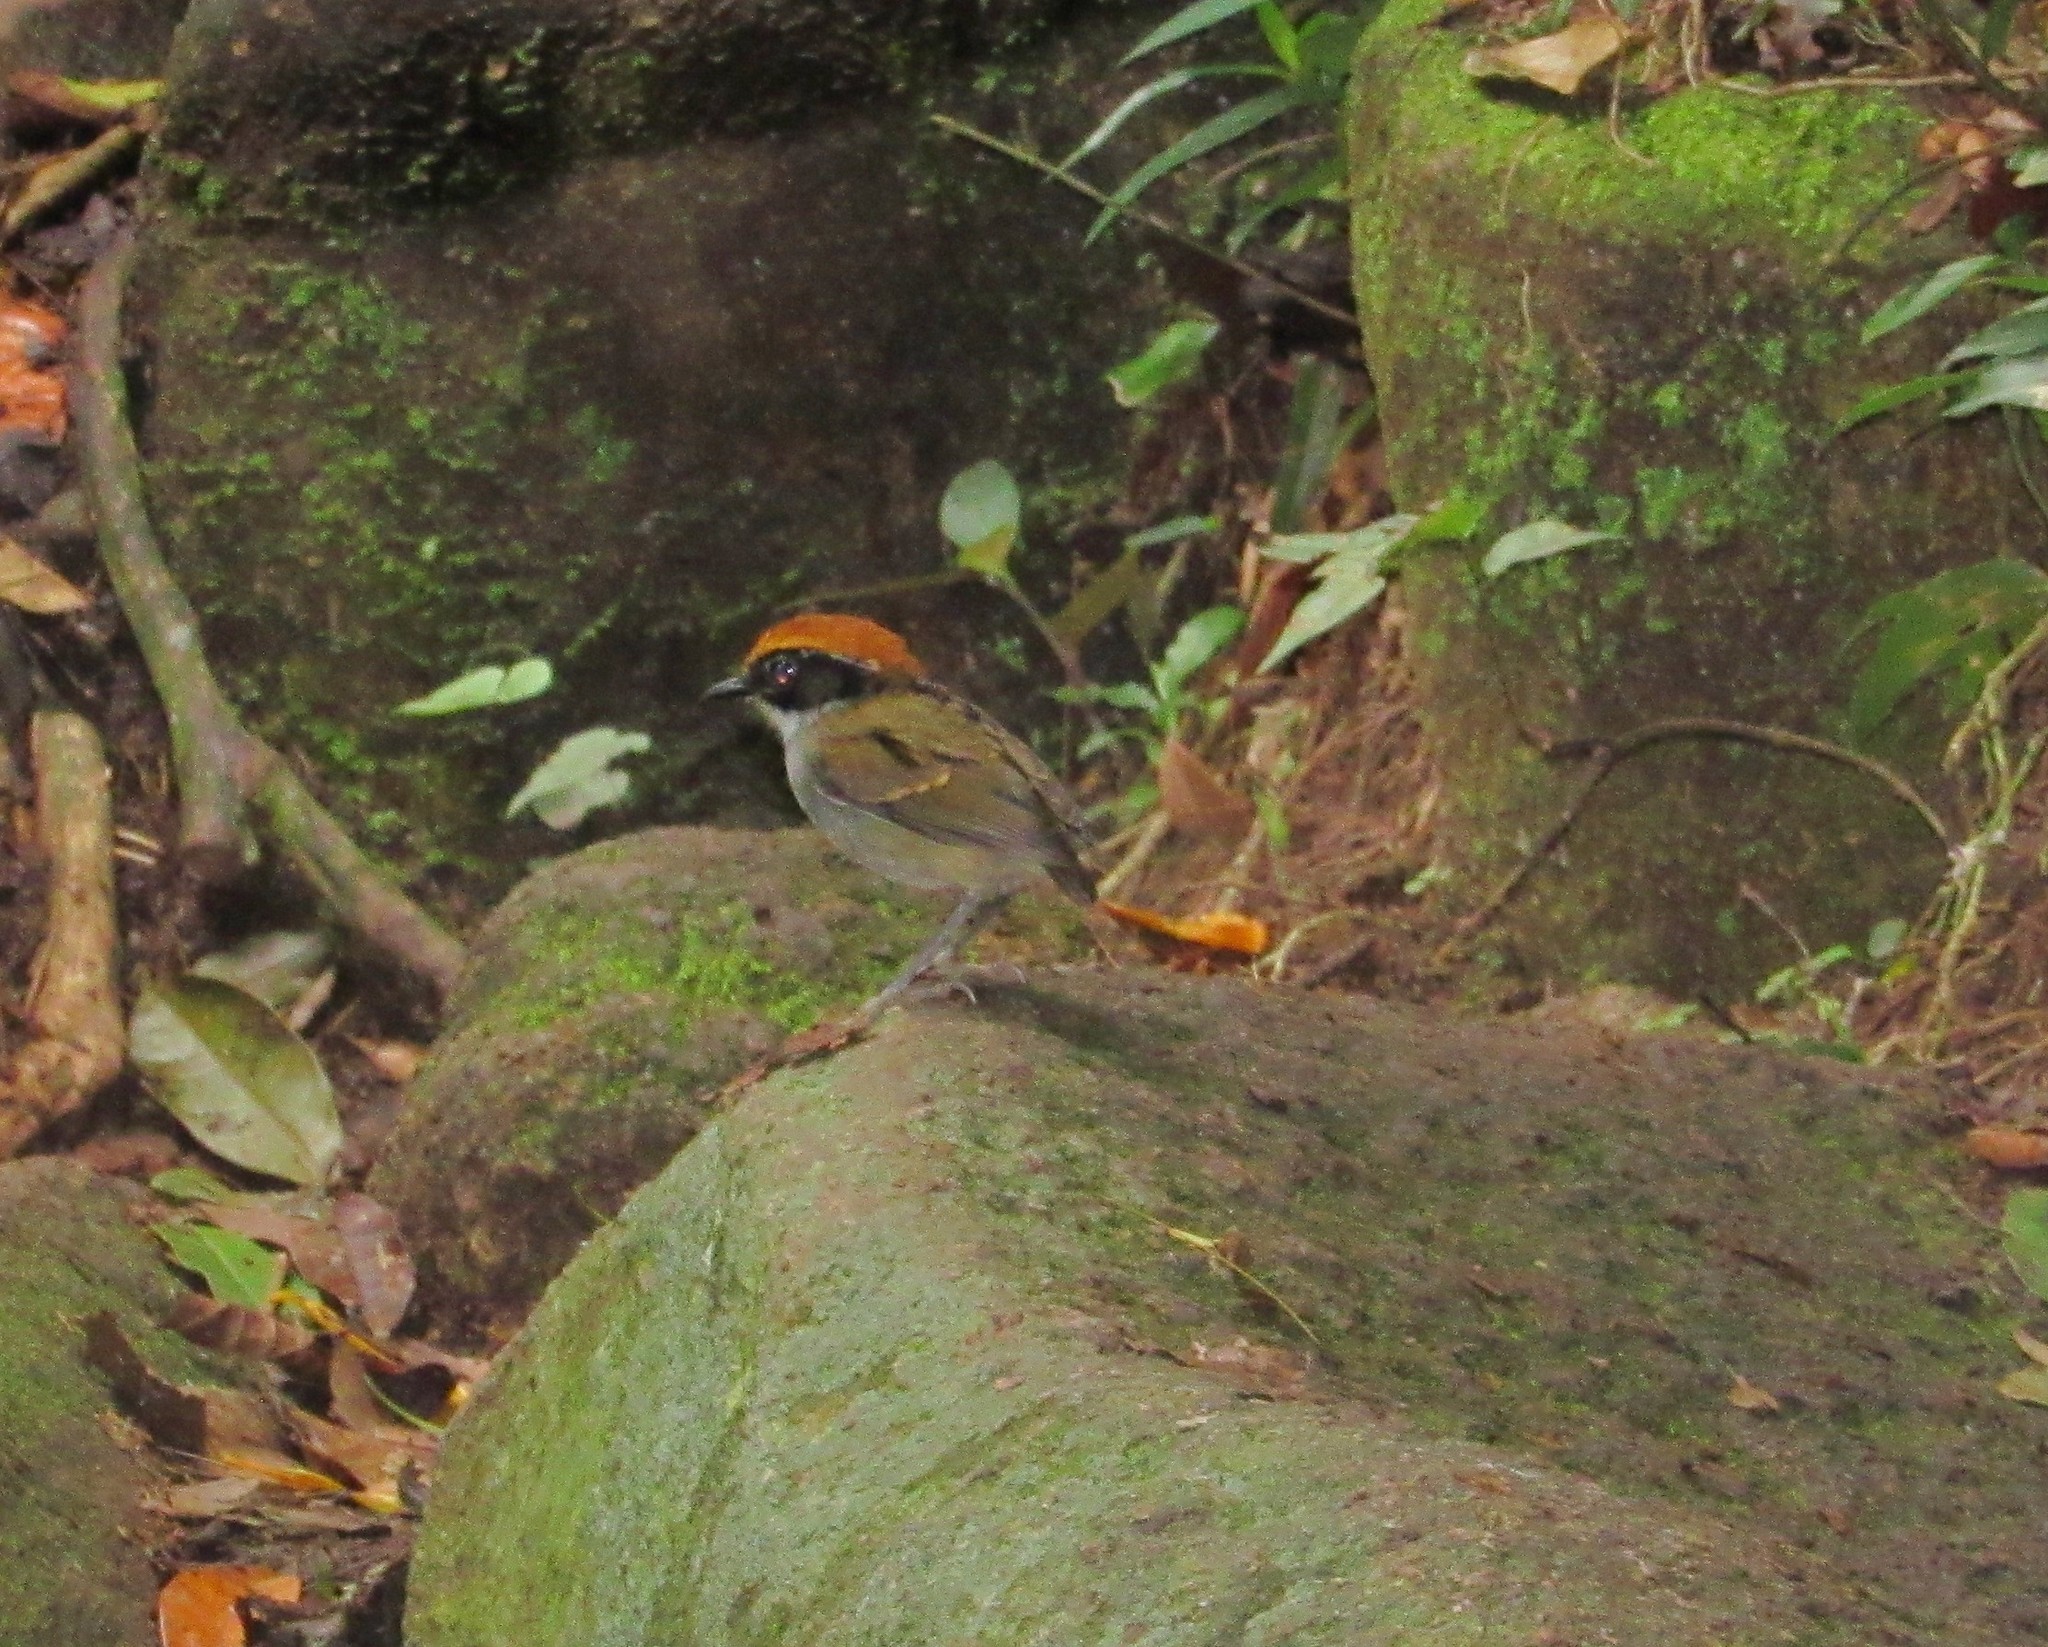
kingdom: Animalia
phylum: Chordata
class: Aves
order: Passeriformes
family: Conopophagidae
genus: Conopophaga
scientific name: Conopophaga melanops
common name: Black-cheeked gnateater
